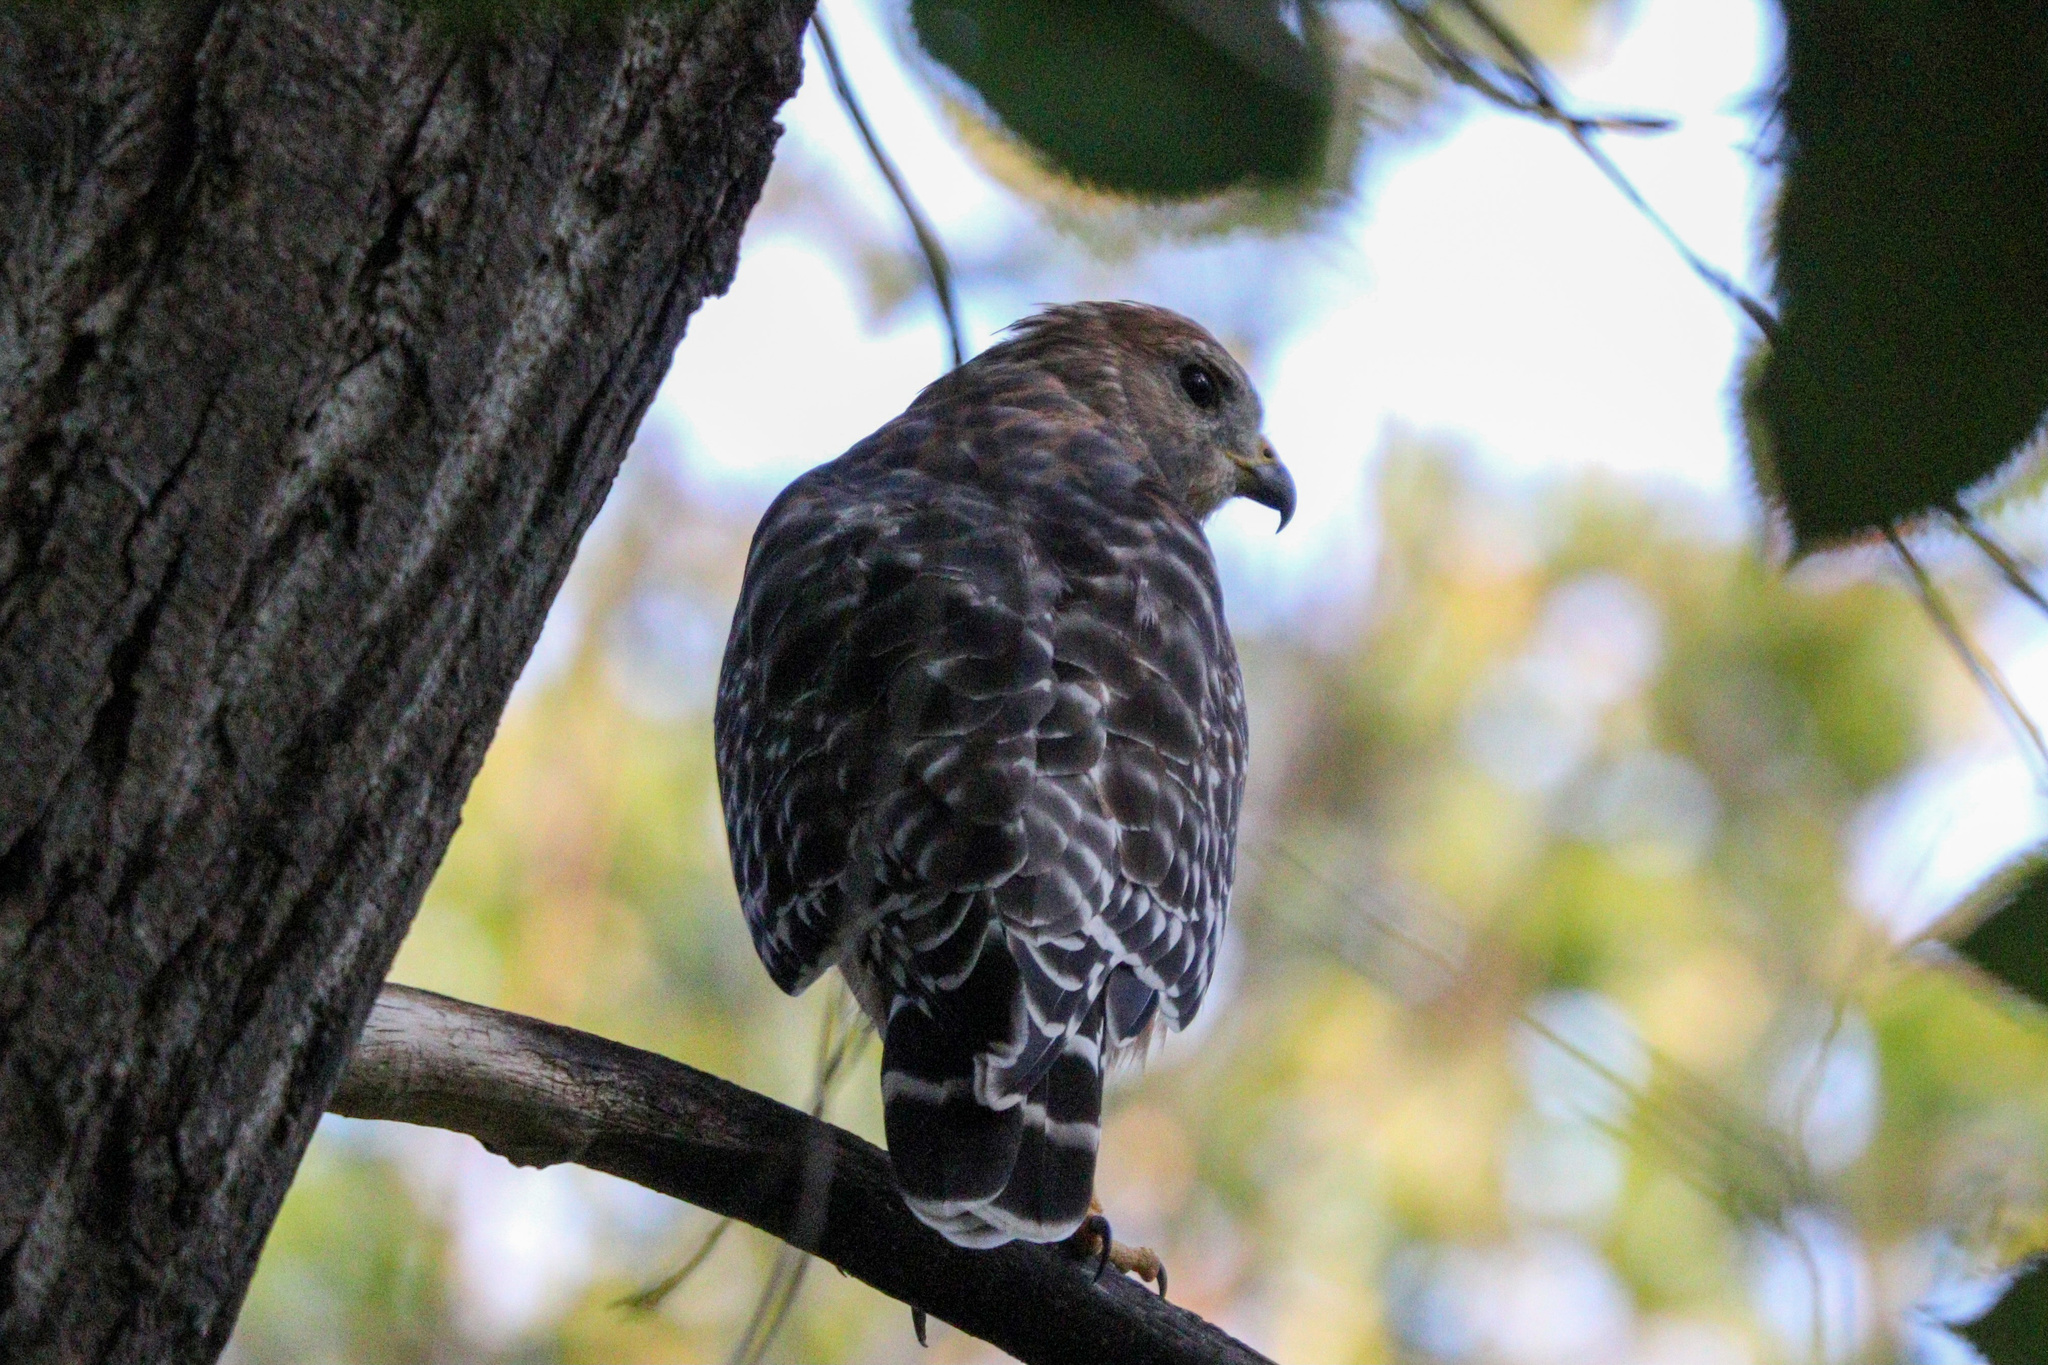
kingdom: Animalia
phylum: Chordata
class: Aves
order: Accipitriformes
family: Accipitridae
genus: Buteo
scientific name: Buteo lineatus
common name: Red-shouldered hawk
